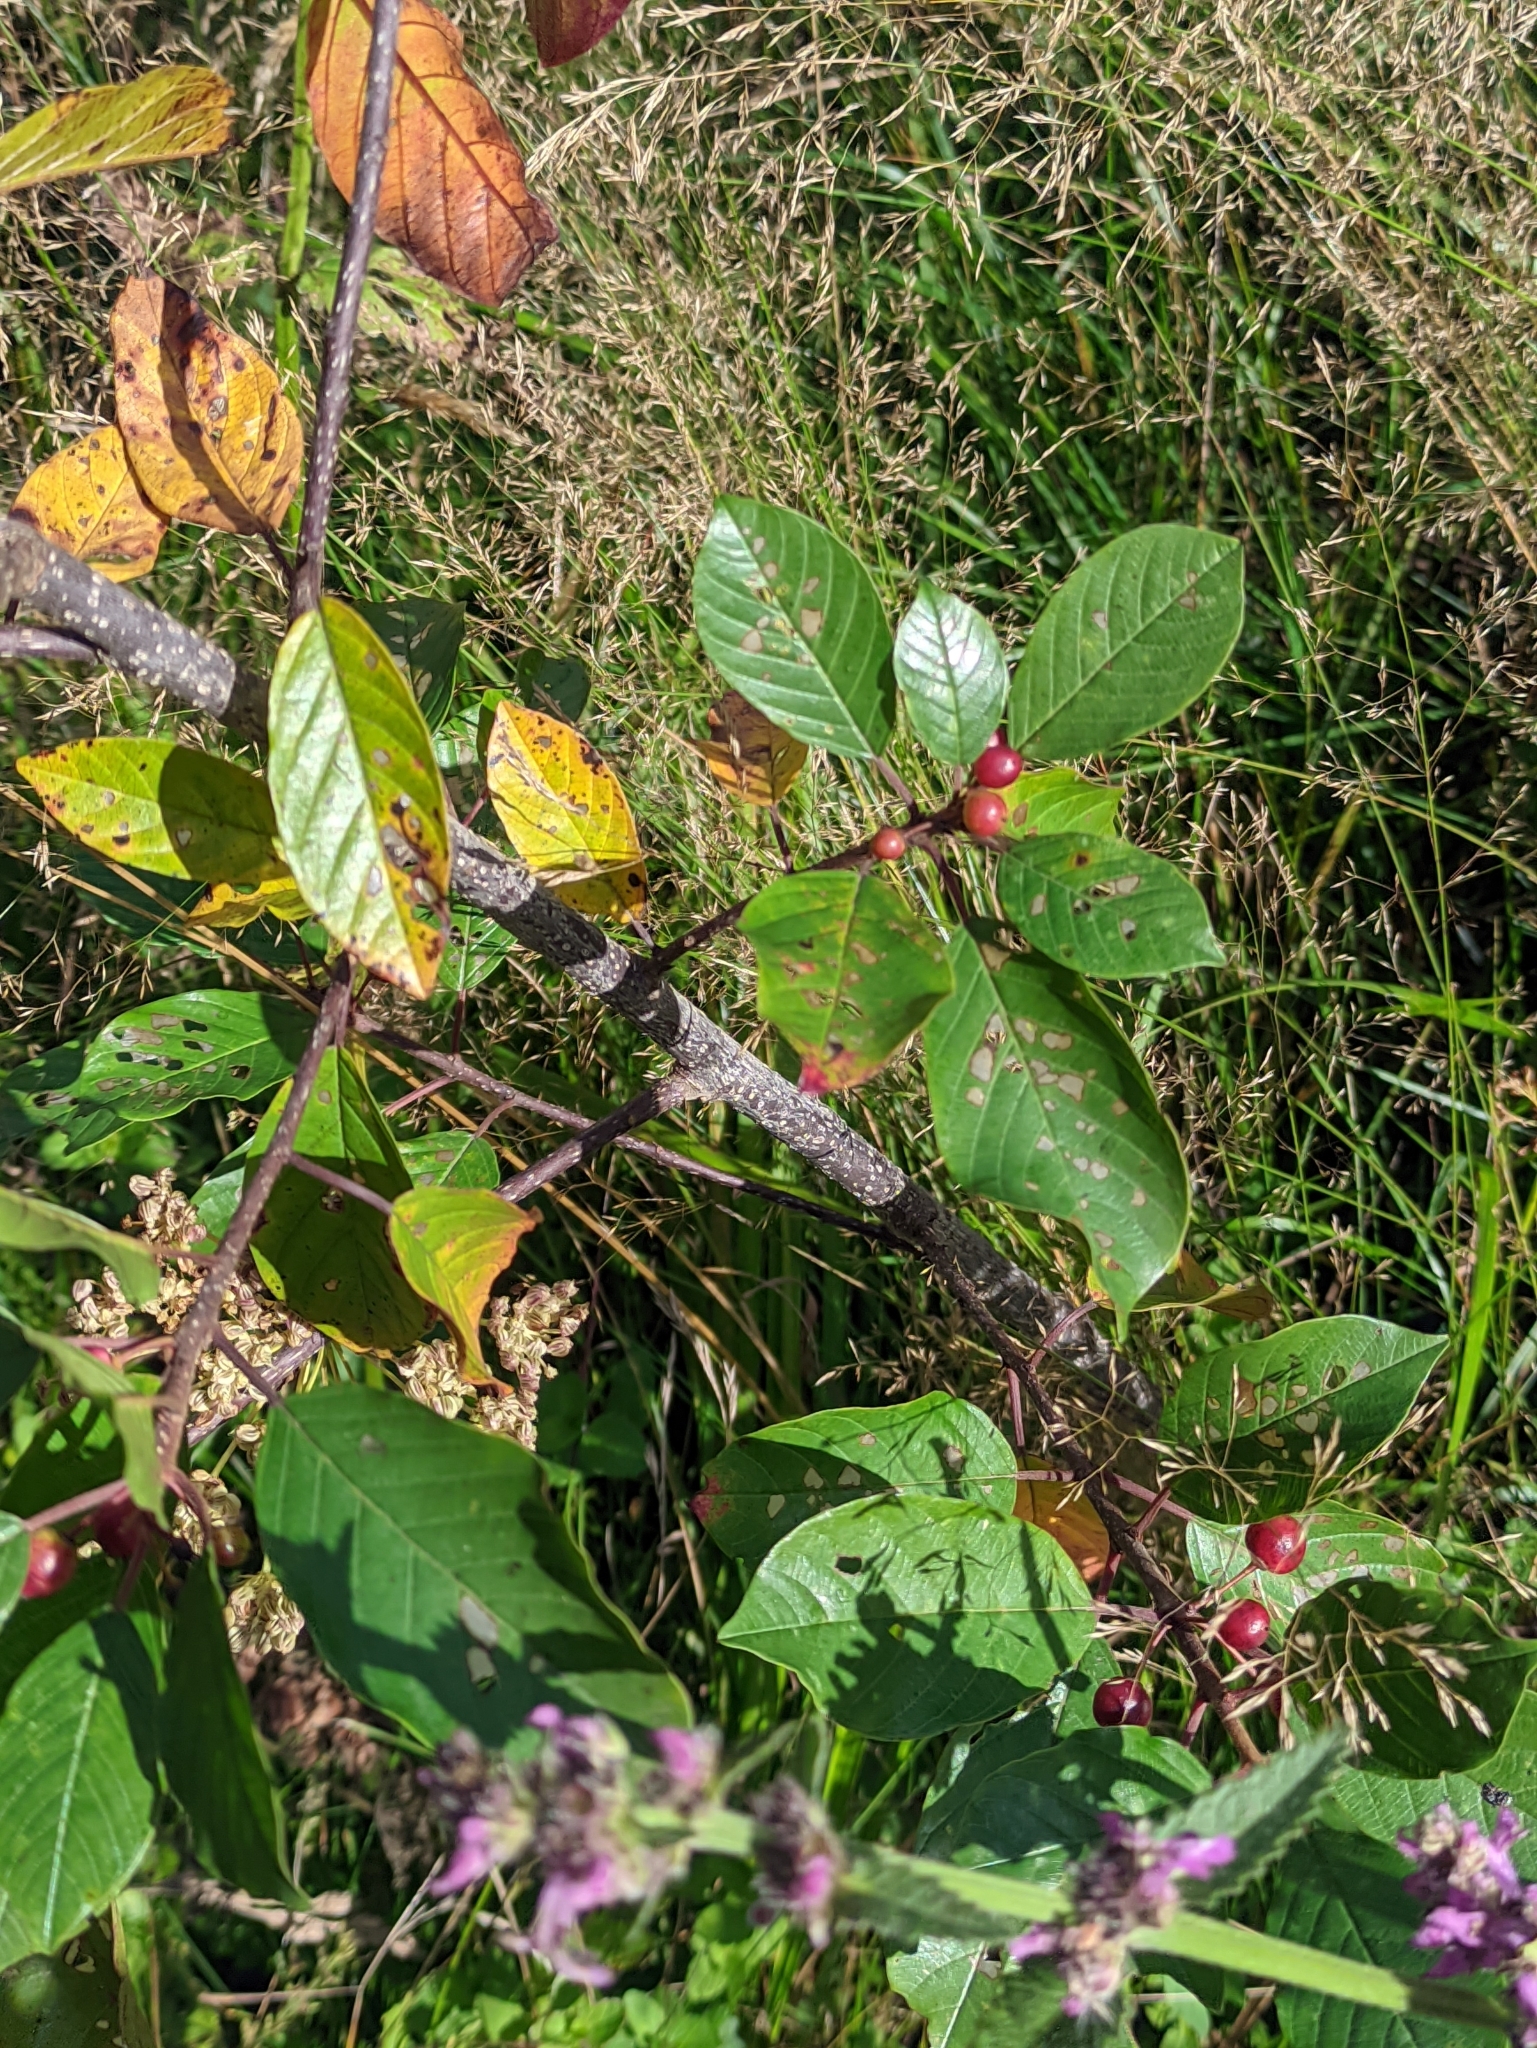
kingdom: Plantae
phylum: Tracheophyta
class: Magnoliopsida
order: Rosales
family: Rhamnaceae
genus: Frangula
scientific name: Frangula alnus
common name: Alder buckthorn
